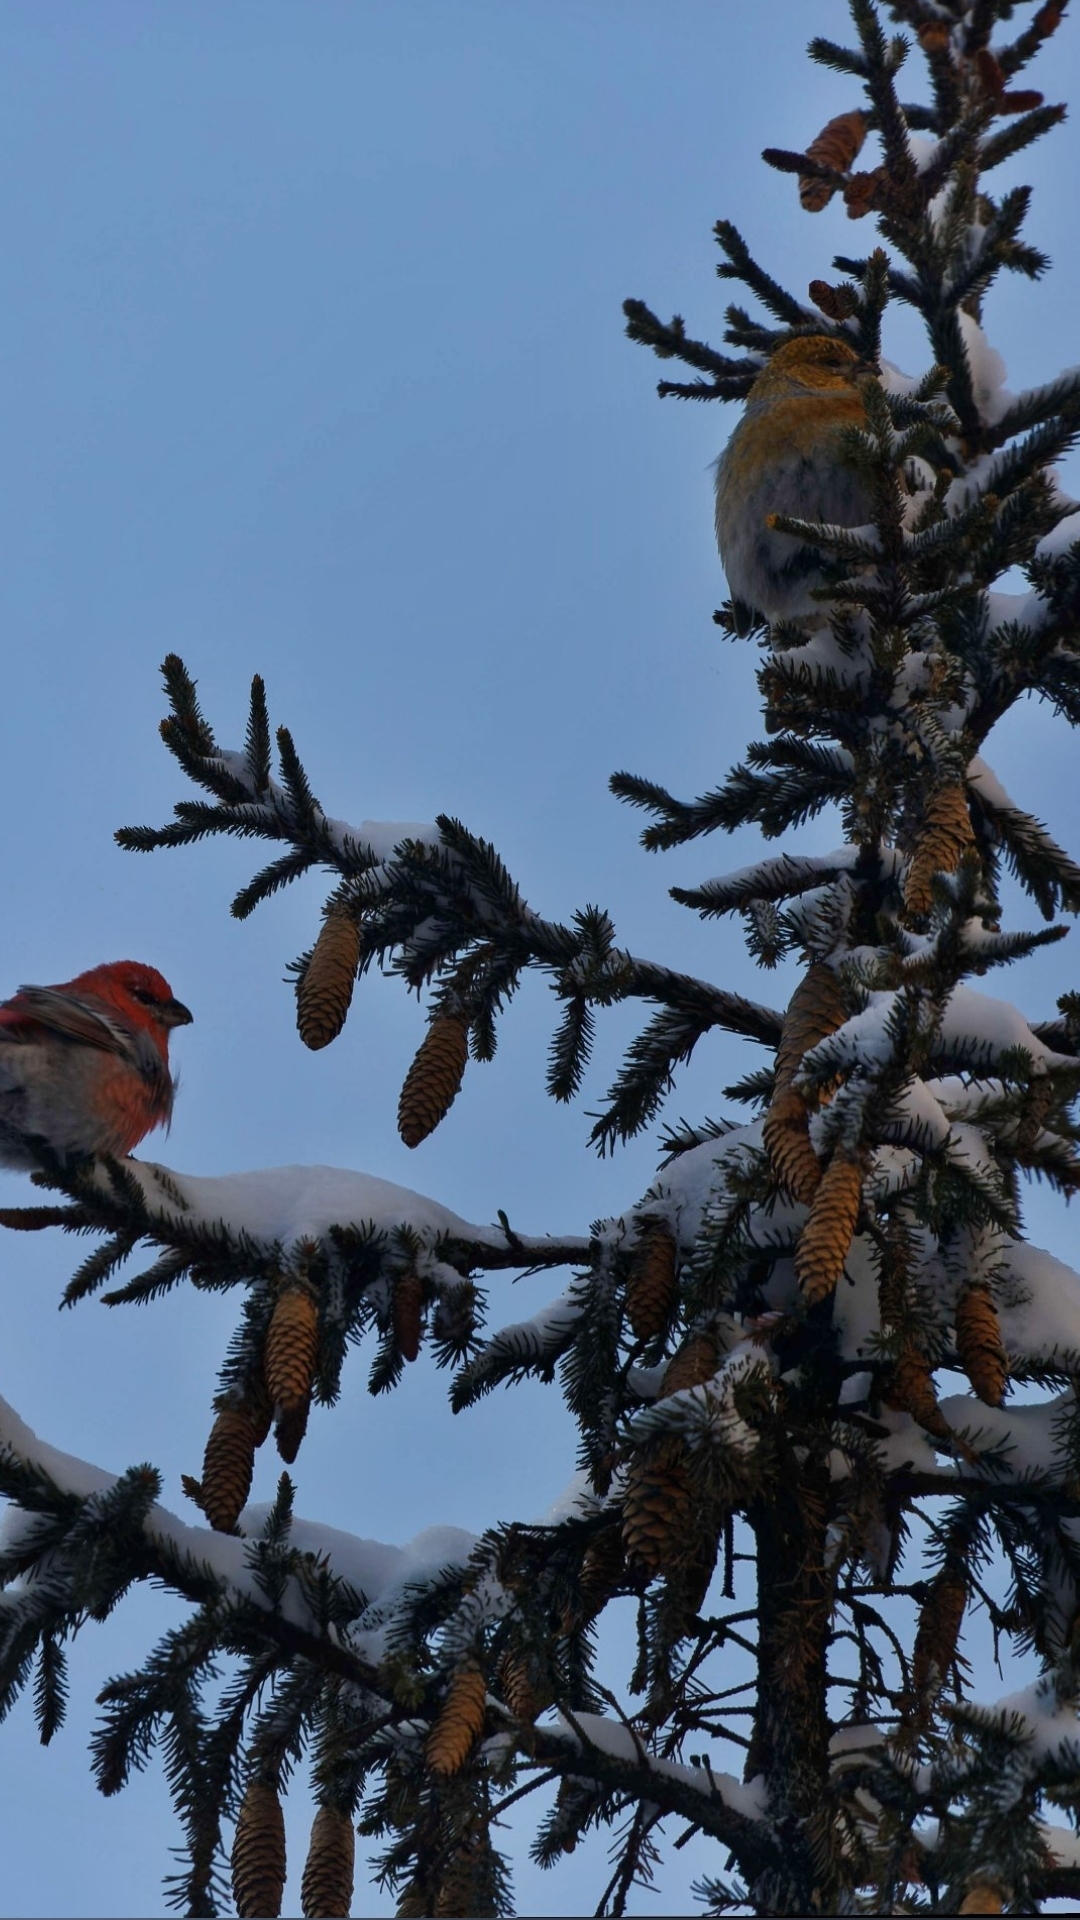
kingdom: Animalia
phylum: Chordata
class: Aves
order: Passeriformes
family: Fringillidae
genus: Pinicola
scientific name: Pinicola enucleator
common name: Pine grosbeak
